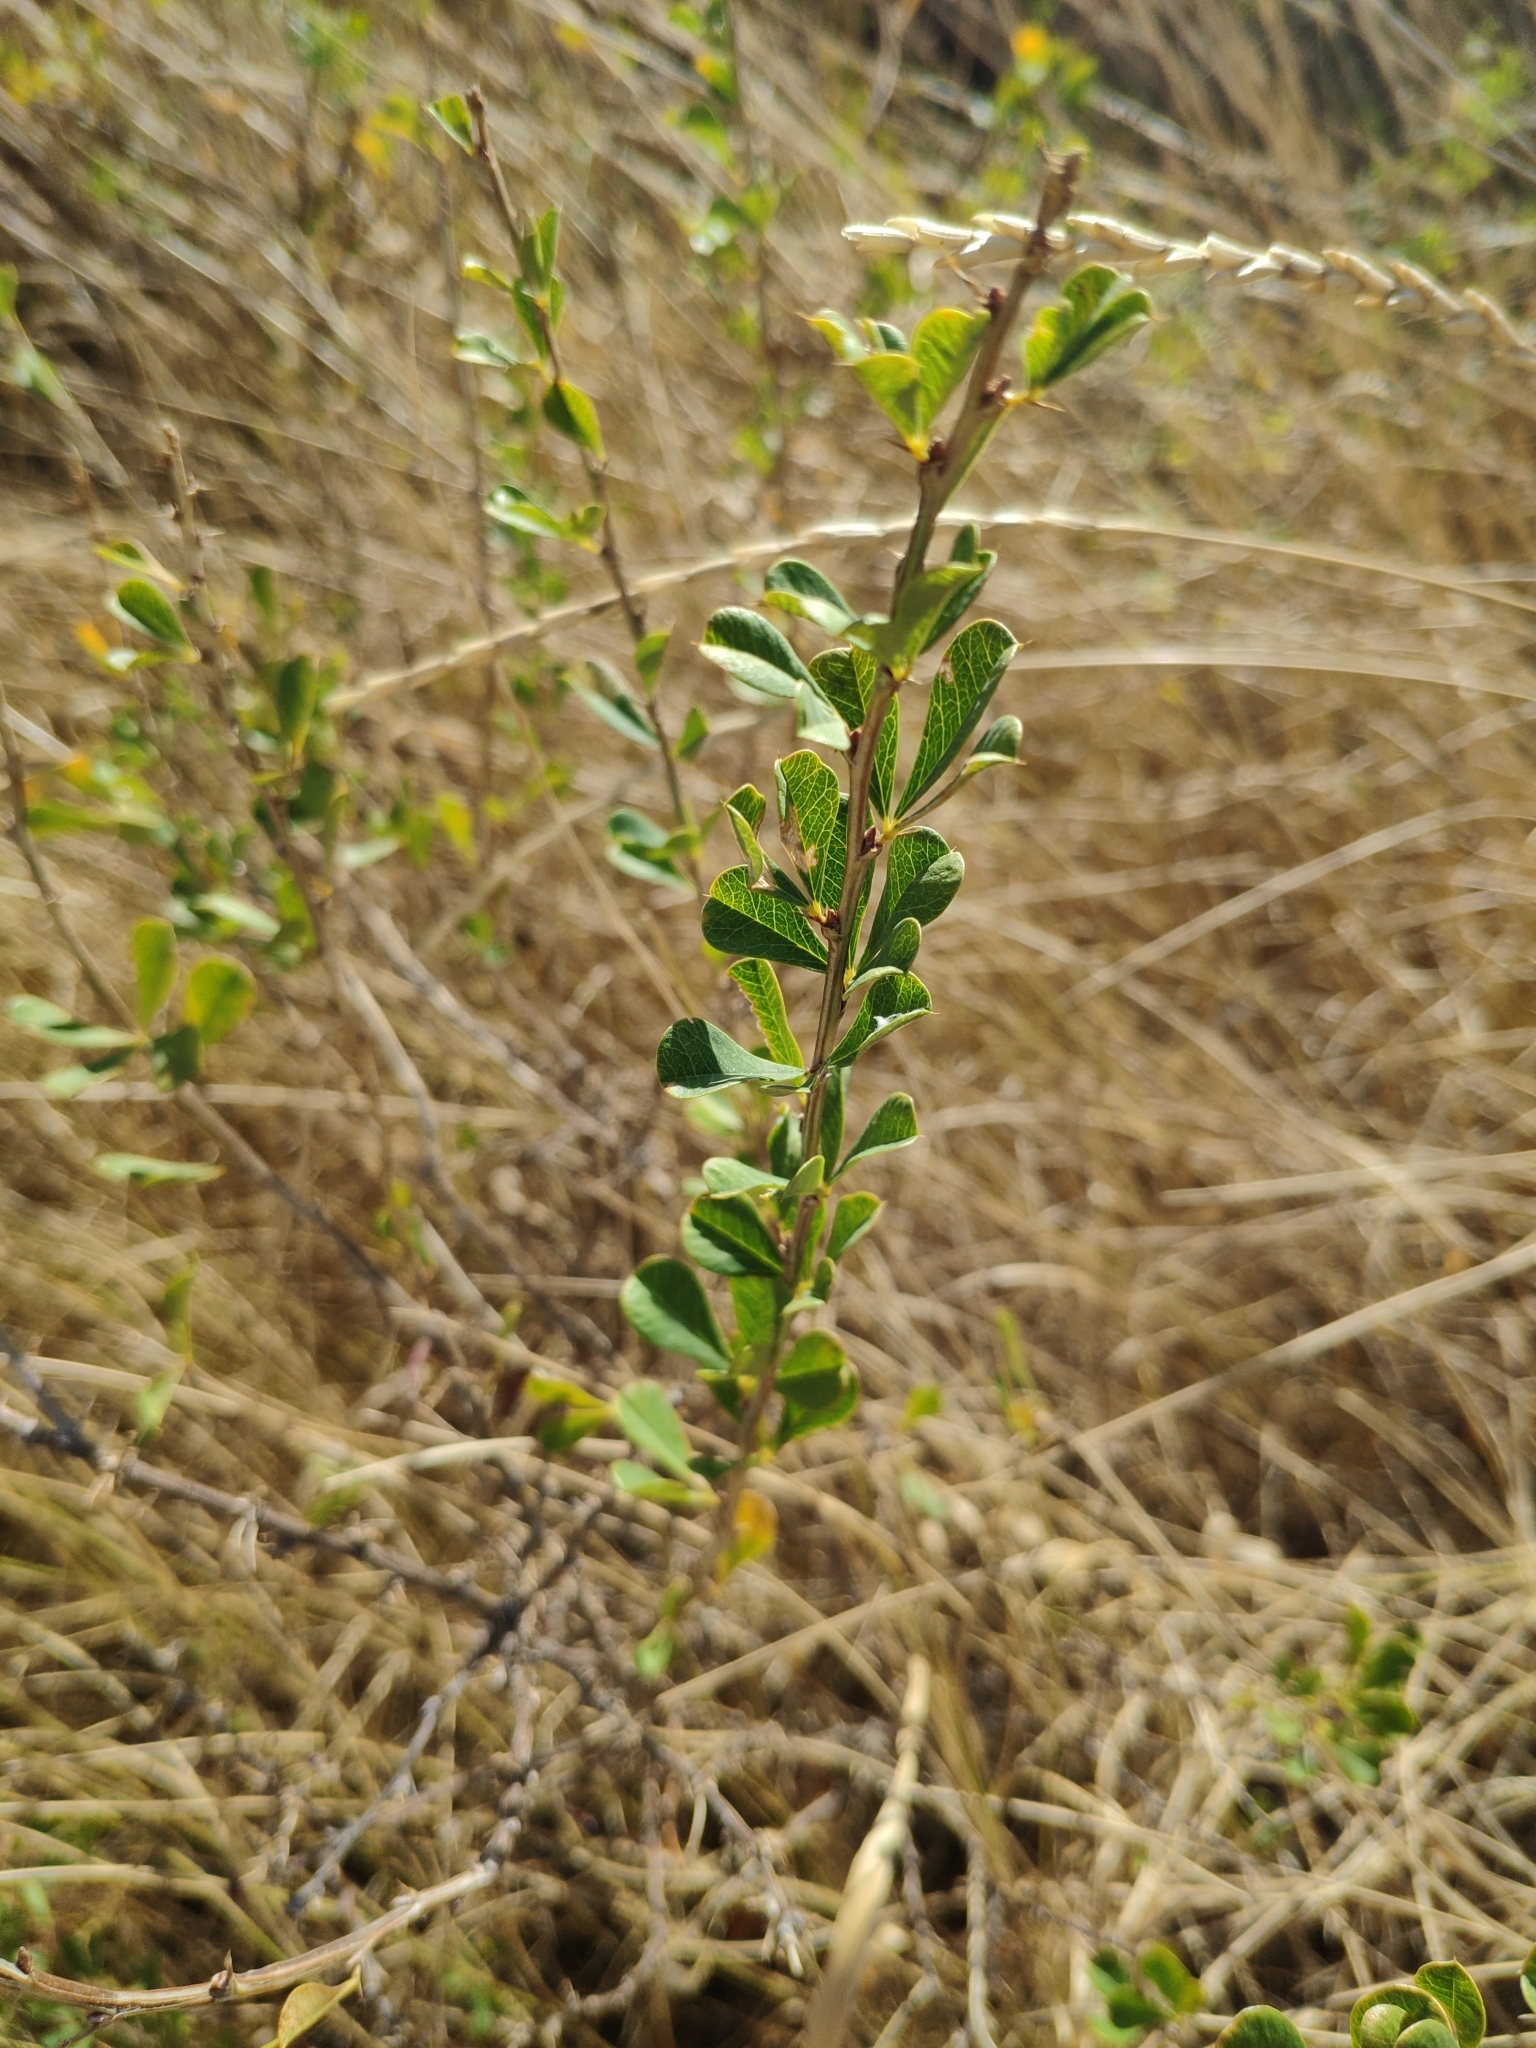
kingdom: Plantae
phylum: Tracheophyta
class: Magnoliopsida
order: Fabales
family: Fabaceae
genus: Caragana
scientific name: Caragana frutex
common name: Russian peashrub
